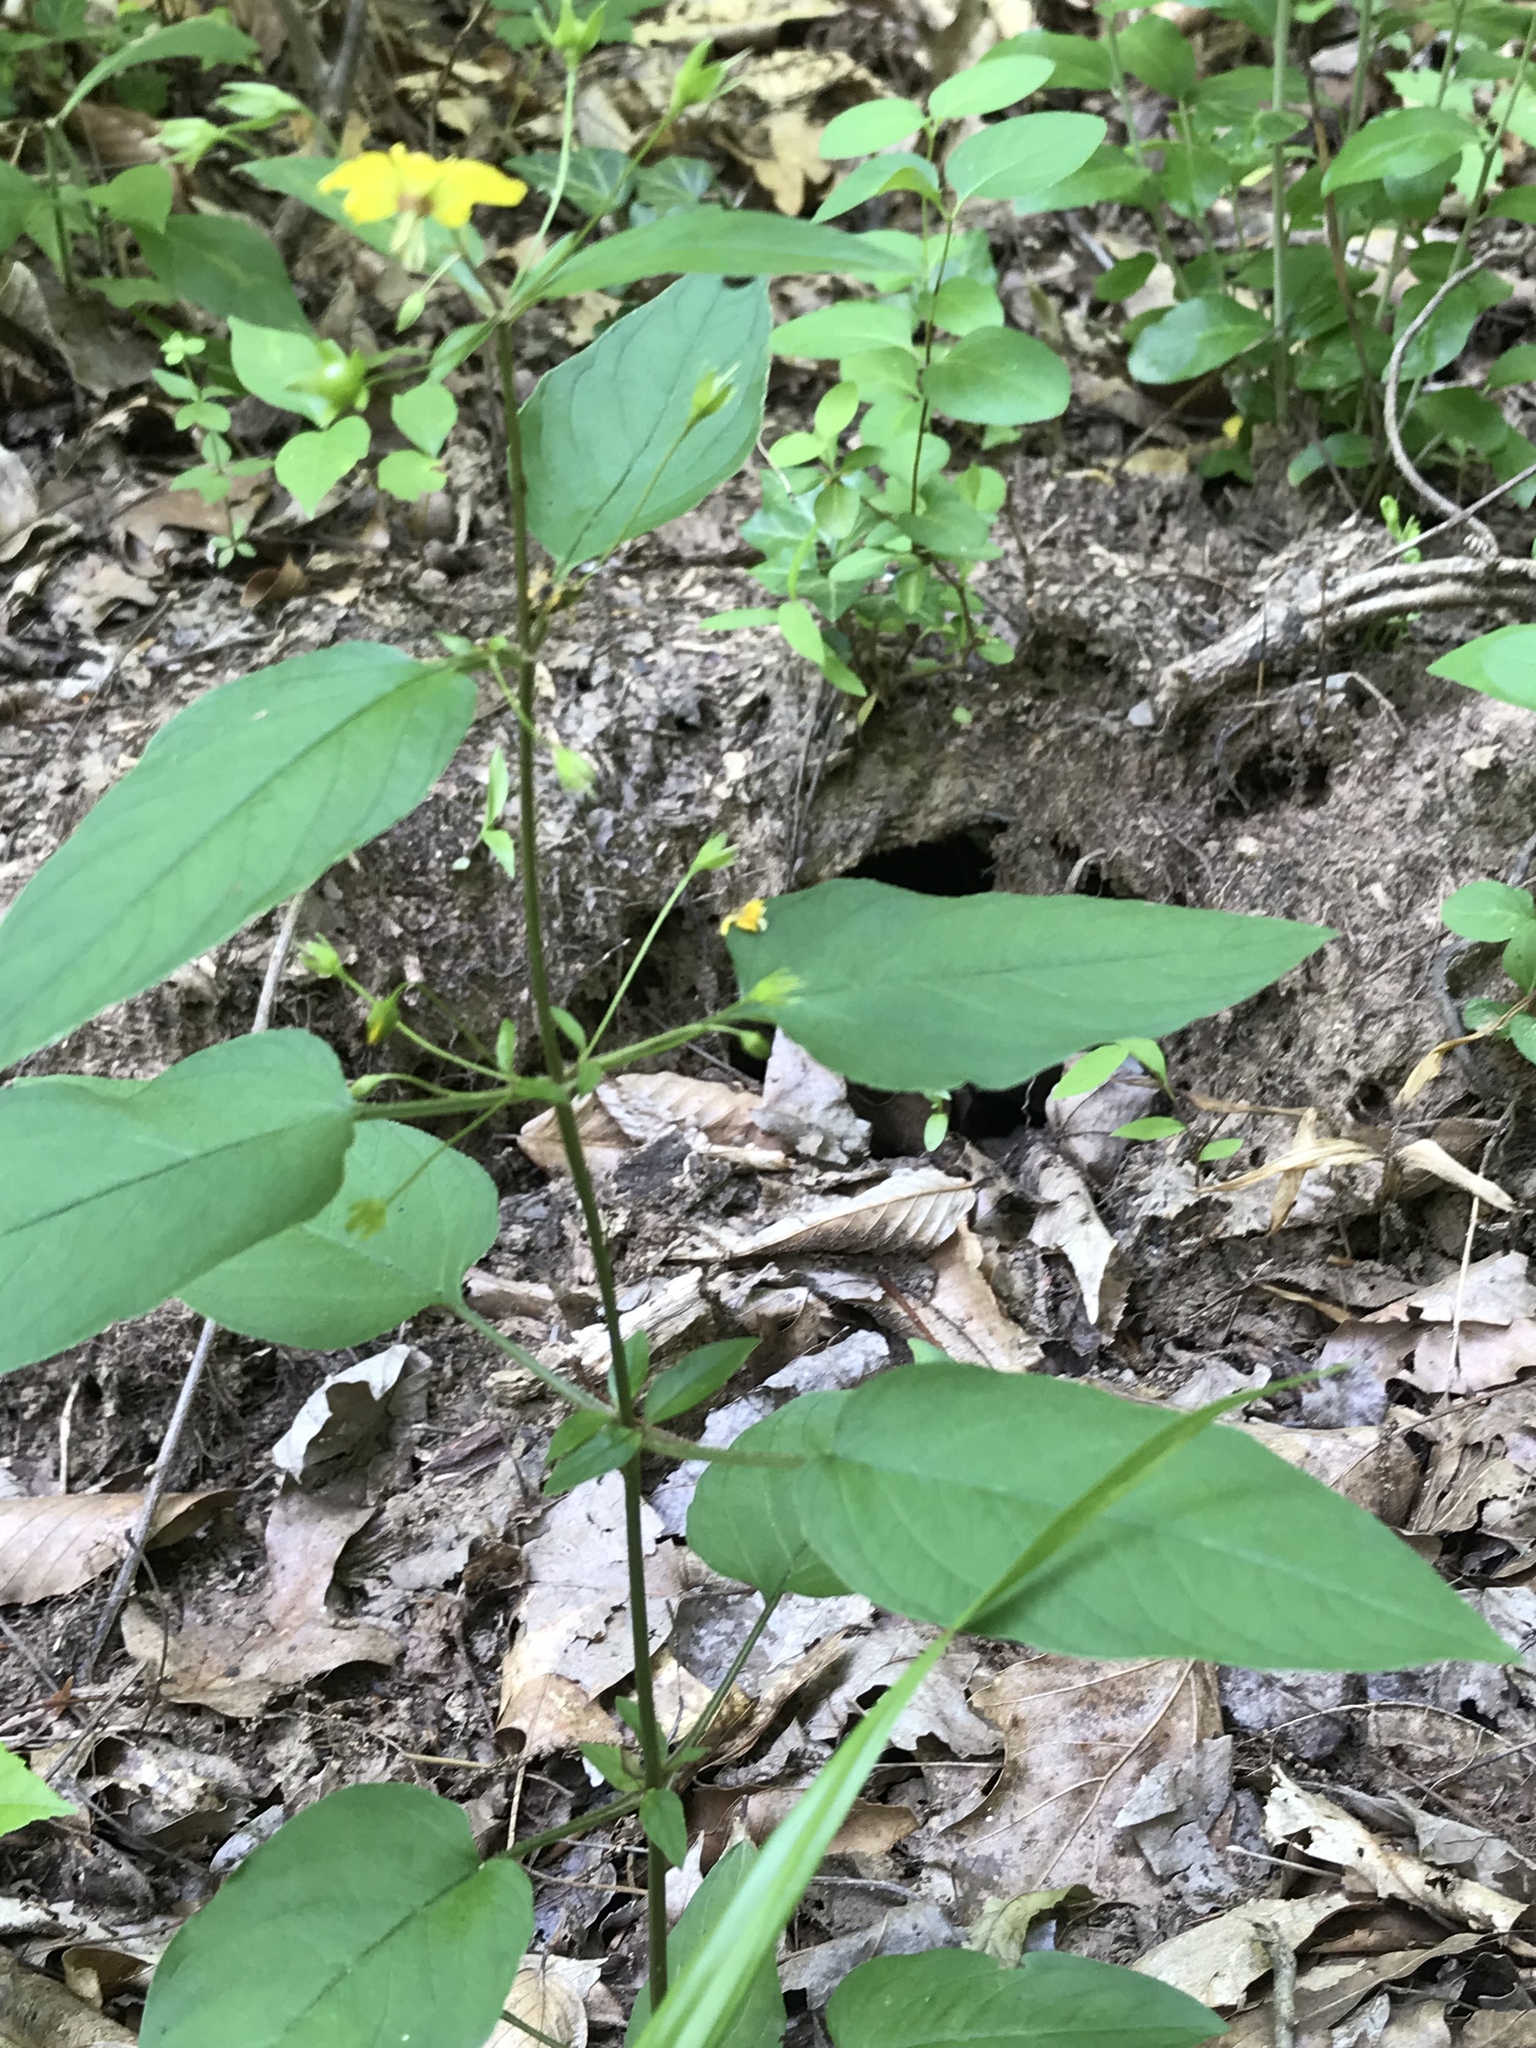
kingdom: Plantae
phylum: Tracheophyta
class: Magnoliopsida
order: Ericales
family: Primulaceae
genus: Lysimachia
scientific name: Lysimachia ciliata
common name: Fringed loosestrife
